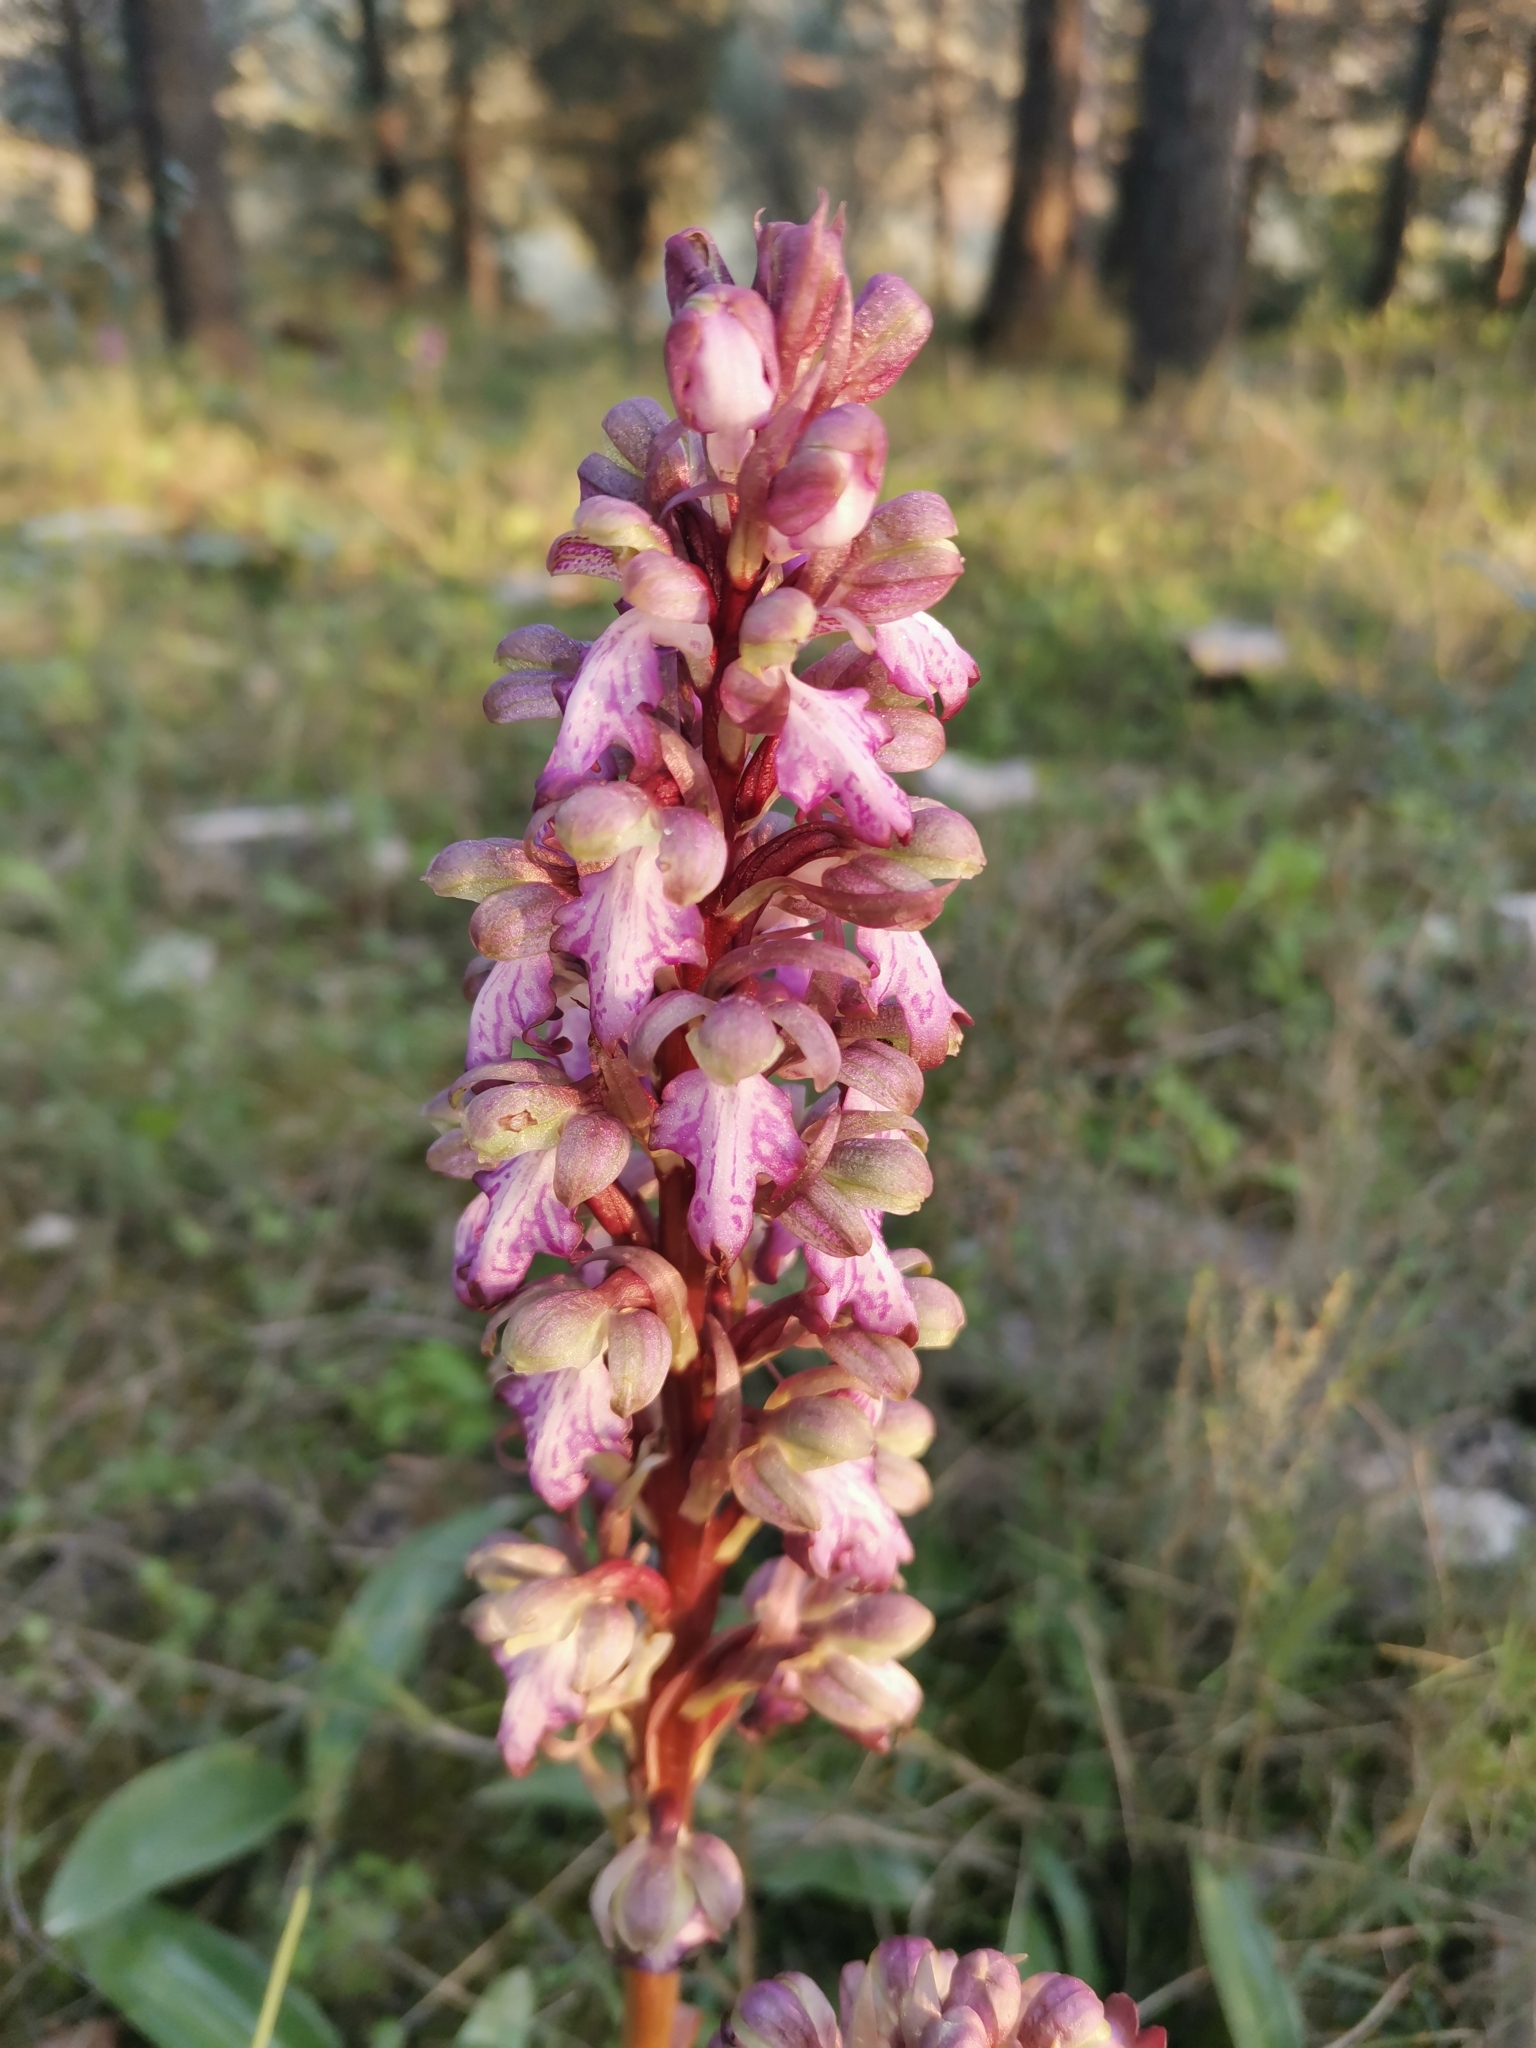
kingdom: Plantae
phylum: Tracheophyta
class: Liliopsida
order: Asparagales
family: Orchidaceae
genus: Himantoglossum
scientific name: Himantoglossum robertianum
